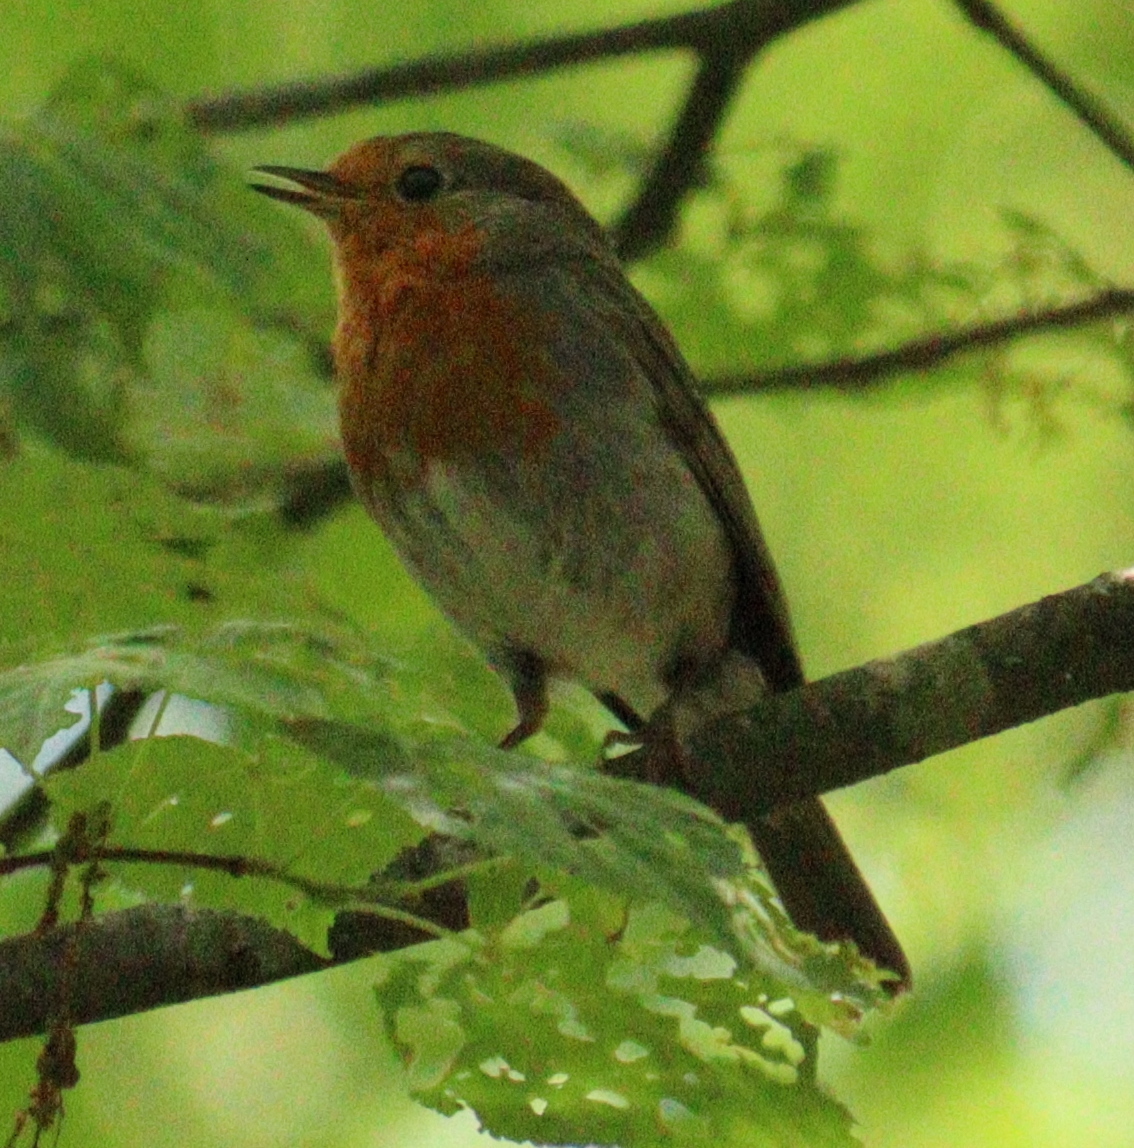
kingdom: Animalia
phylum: Chordata
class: Aves
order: Passeriformes
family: Muscicapidae
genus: Erithacus
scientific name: Erithacus rubecula
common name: European robin
